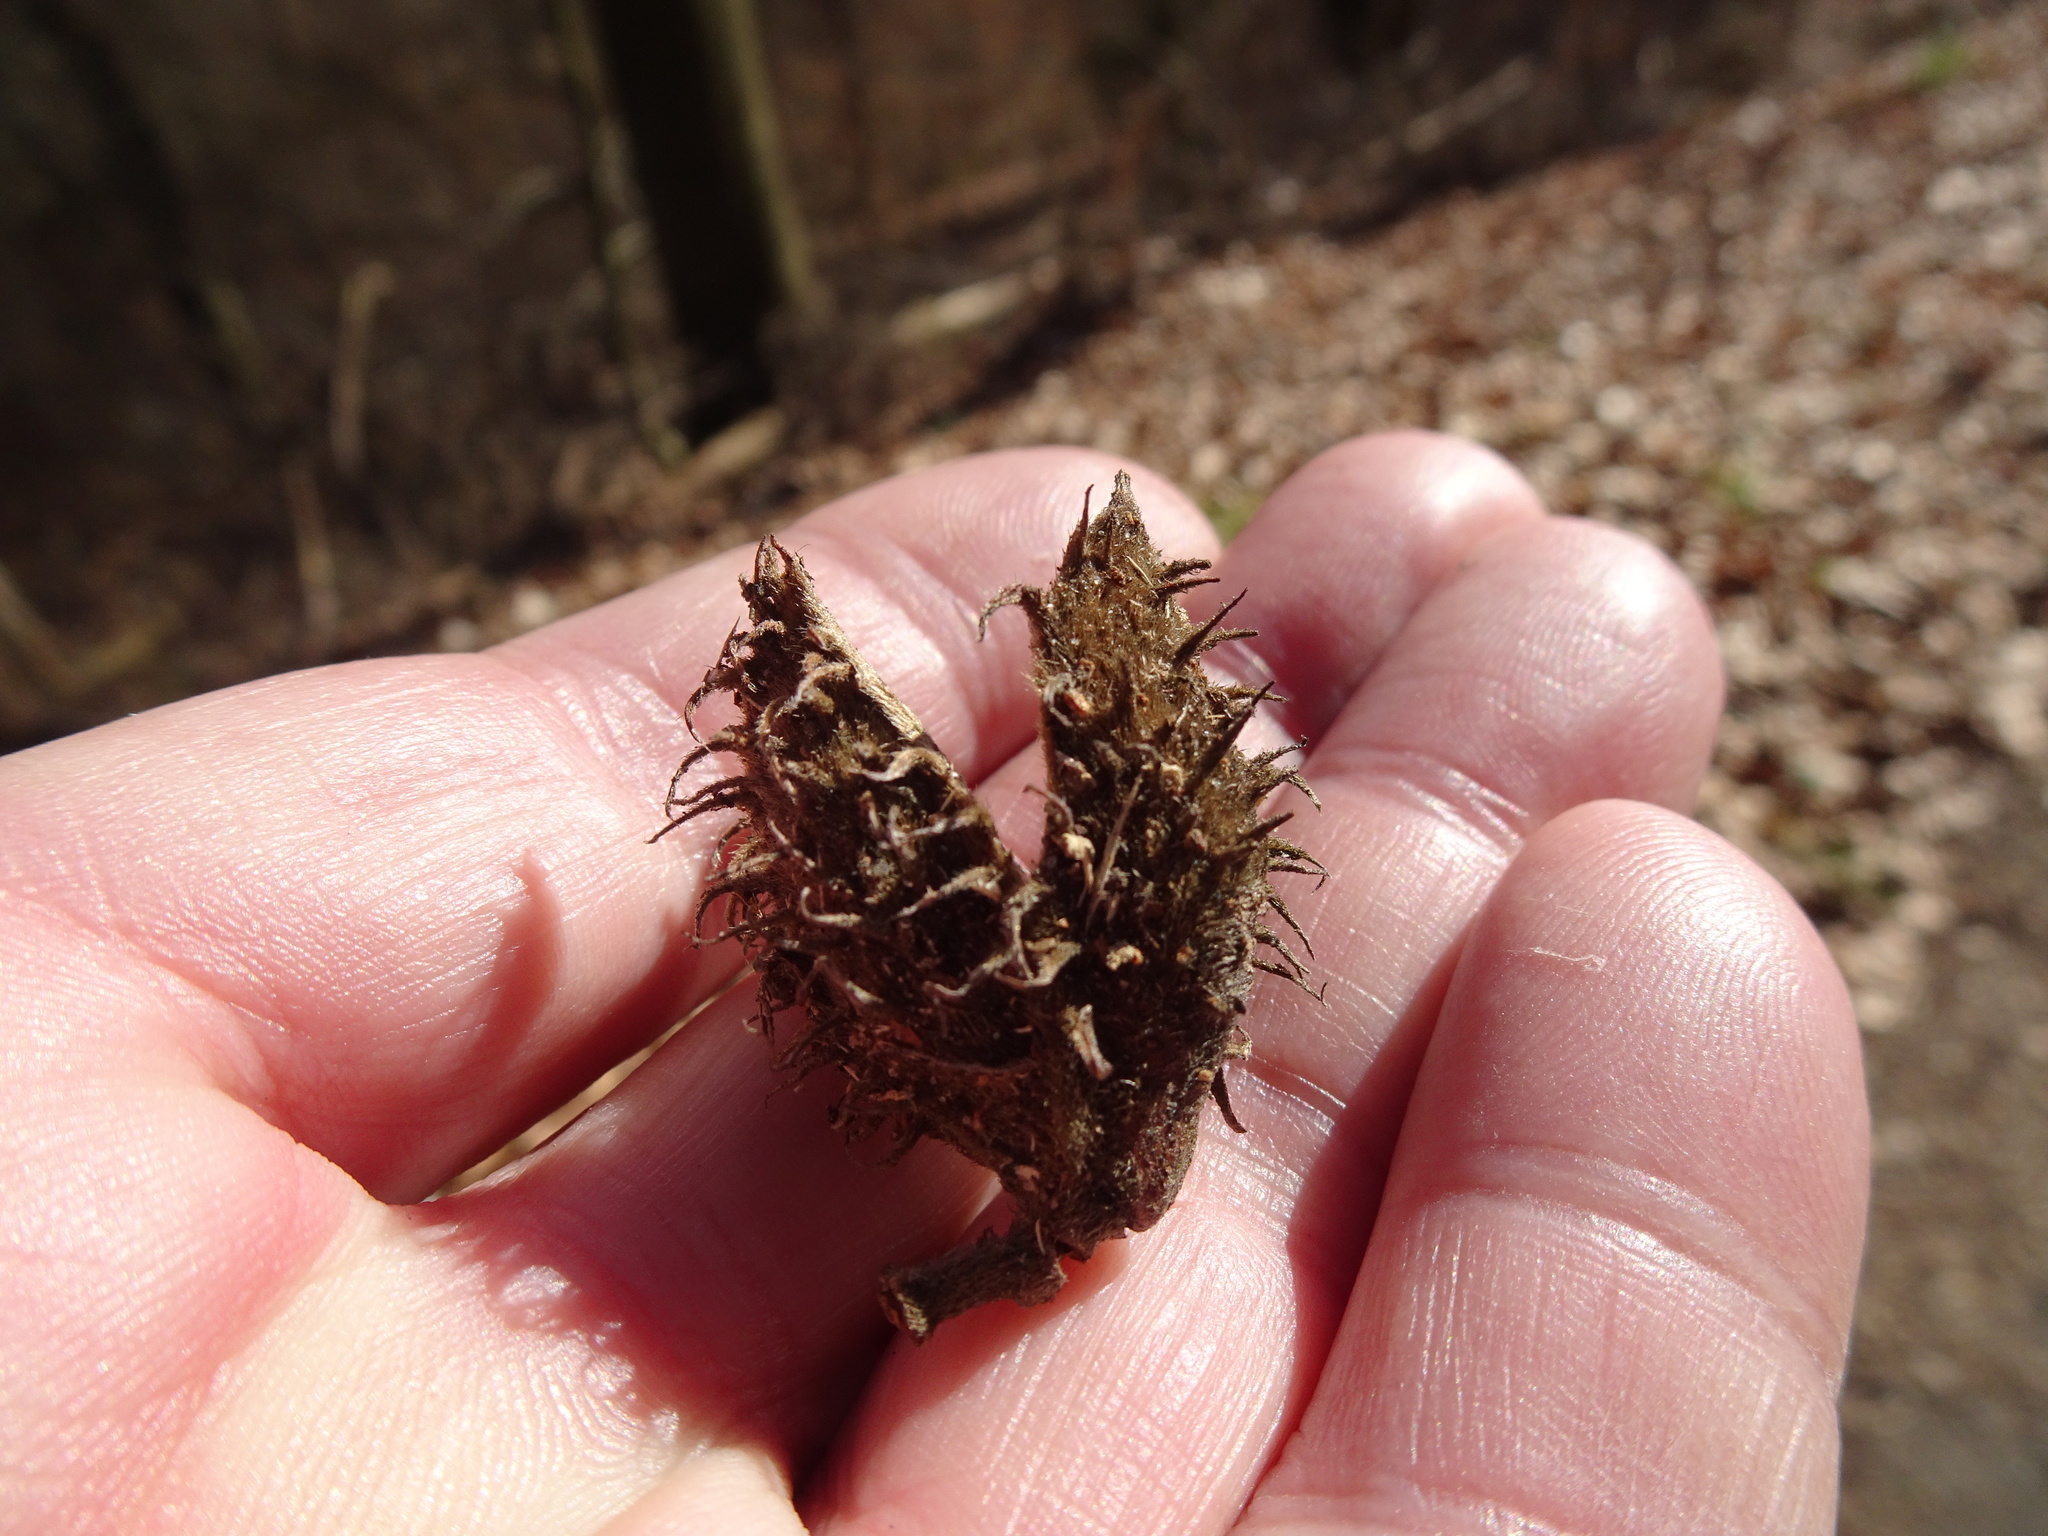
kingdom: Plantae
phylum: Tracheophyta
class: Magnoliopsida
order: Fagales
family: Fagaceae
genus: Fagus
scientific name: Fagus sylvatica
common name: Beech
